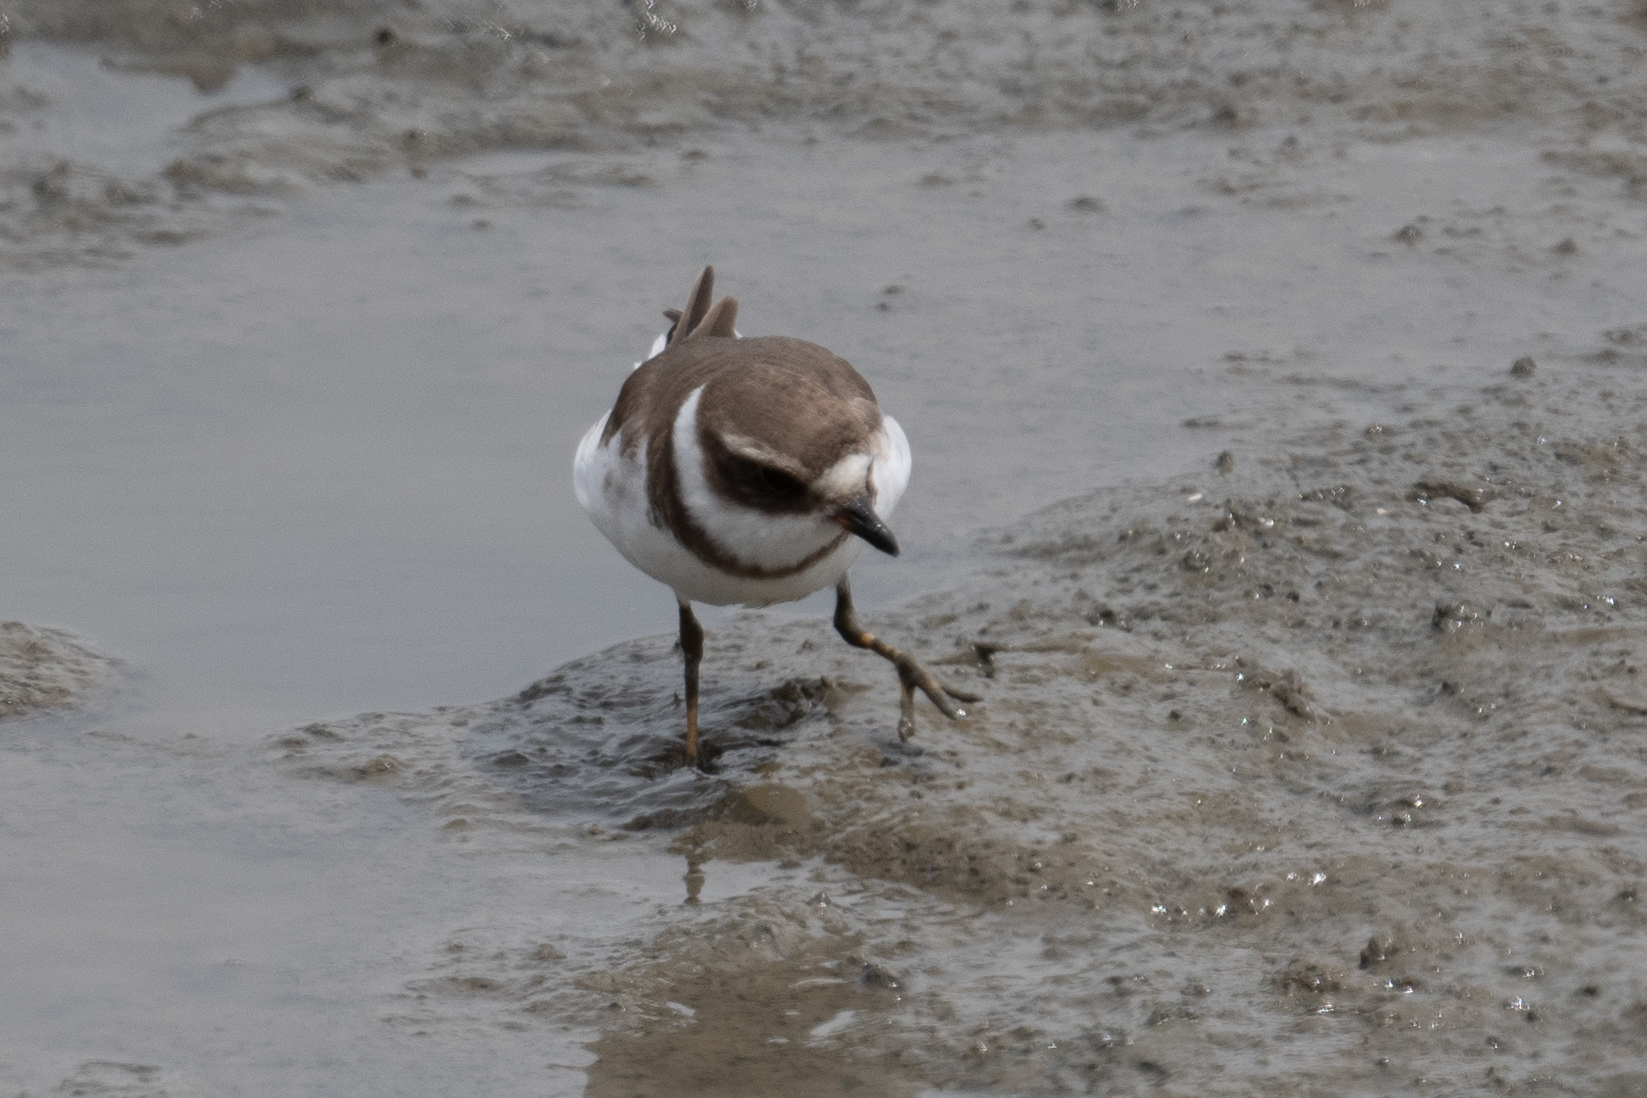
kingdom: Animalia
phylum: Chordata
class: Aves
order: Charadriiformes
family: Charadriidae
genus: Charadrius
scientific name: Charadrius semipalmatus
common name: Semipalmated plover
